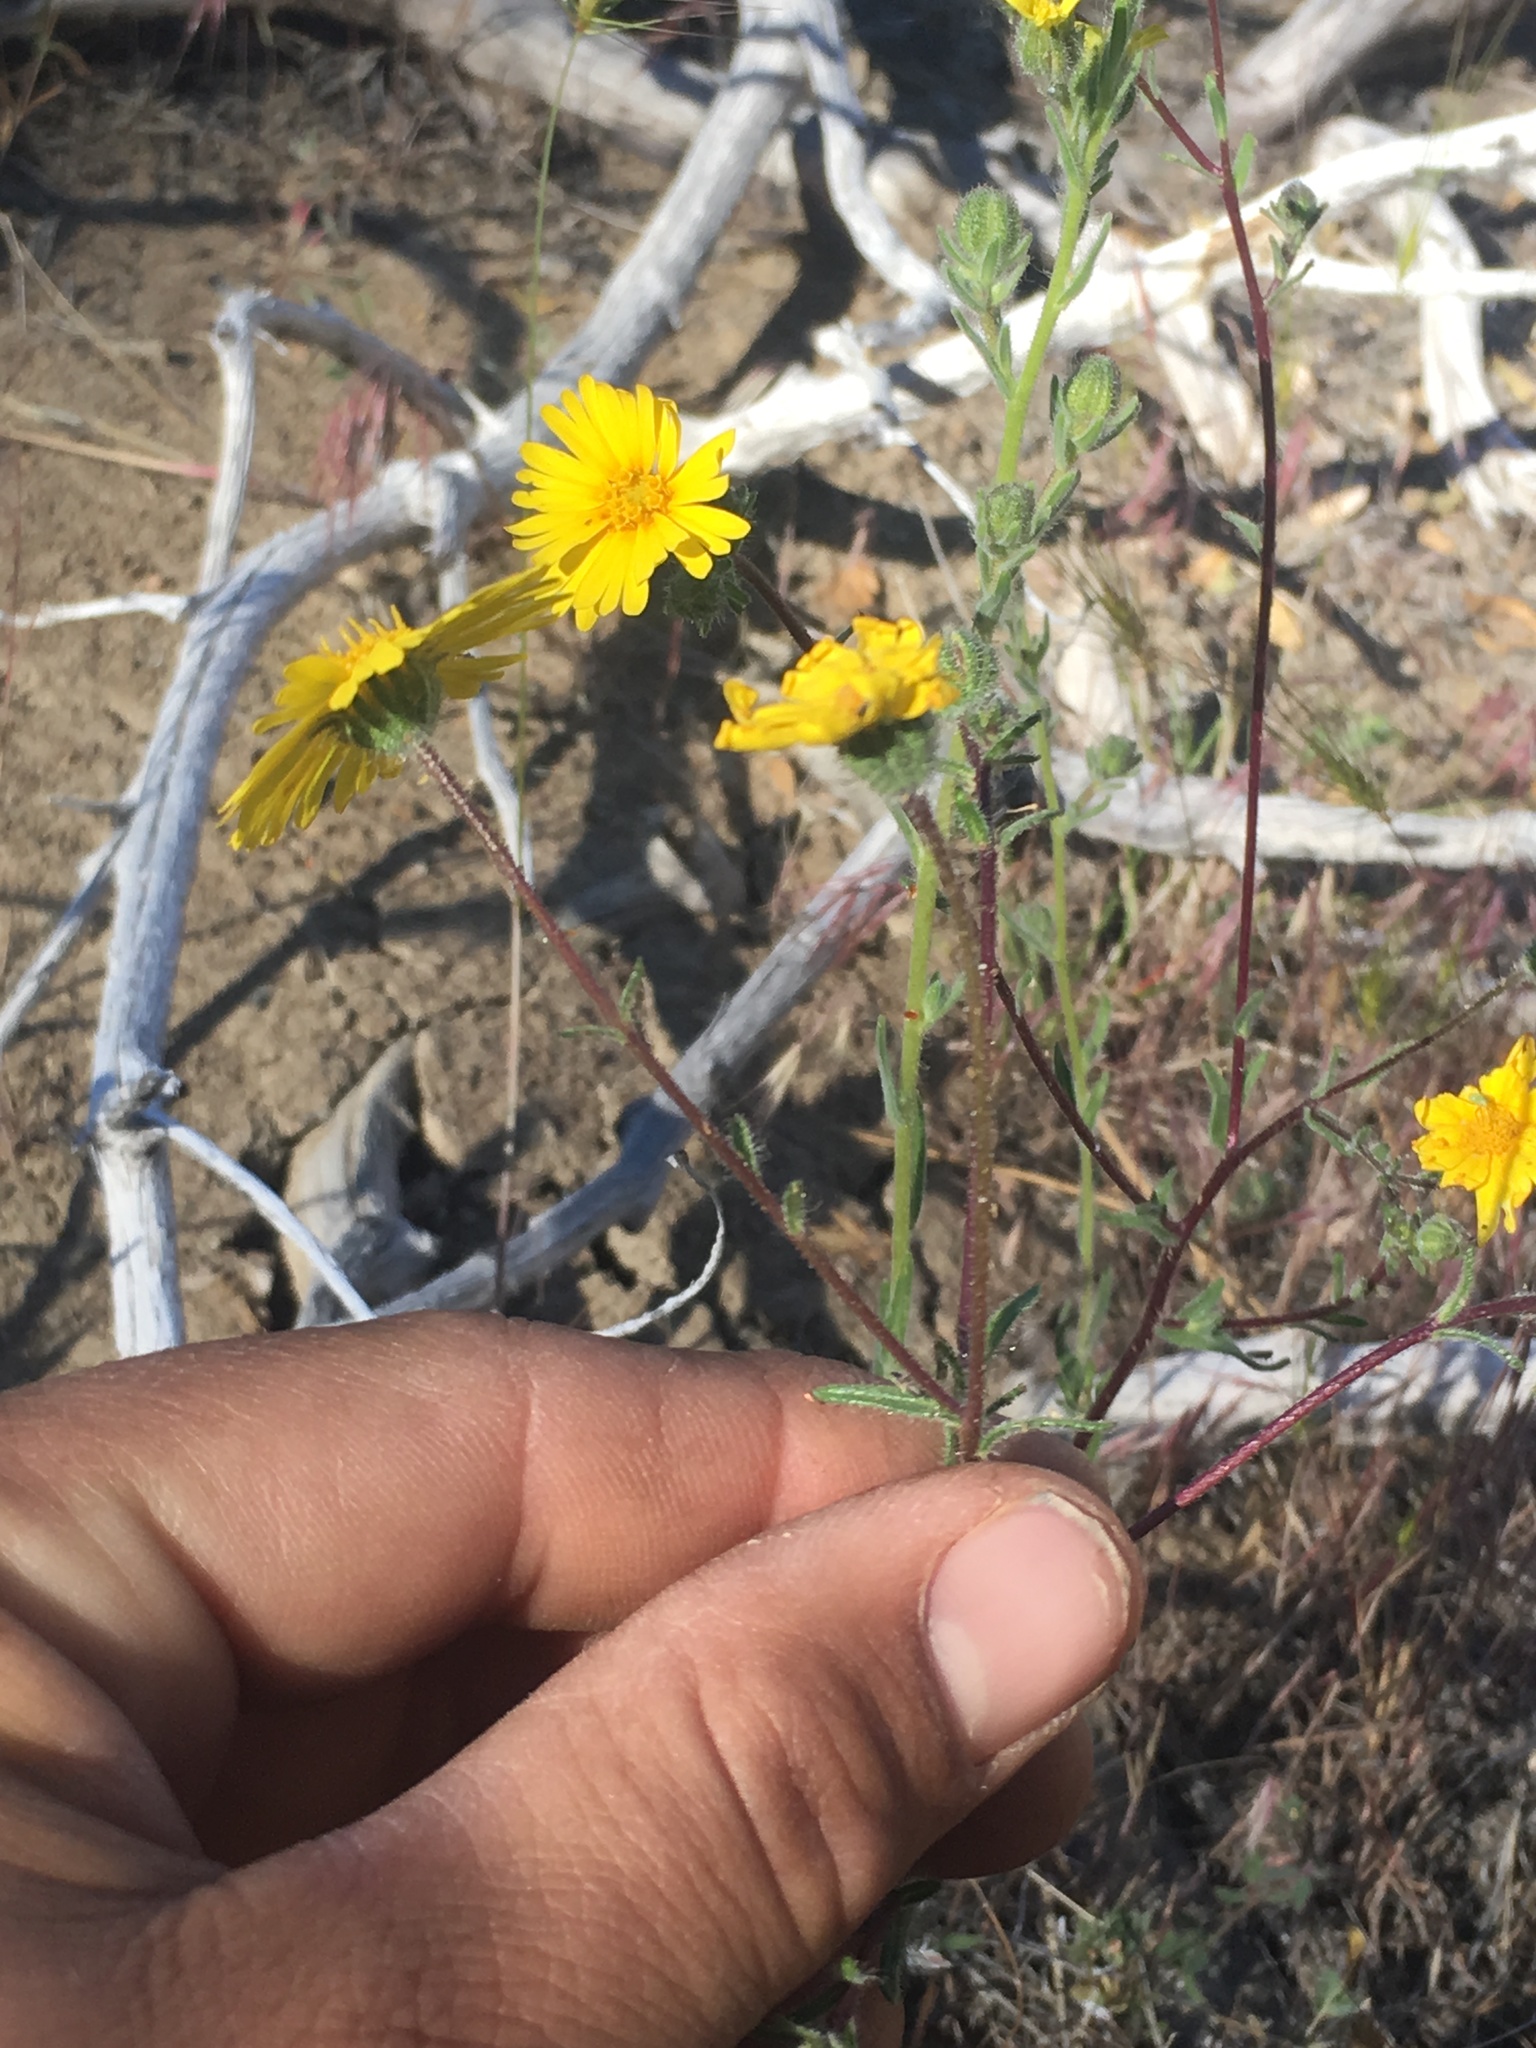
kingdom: Plantae
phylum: Tracheophyta
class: Magnoliopsida
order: Asterales
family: Asteraceae
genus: Madia
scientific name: Madia elegans
